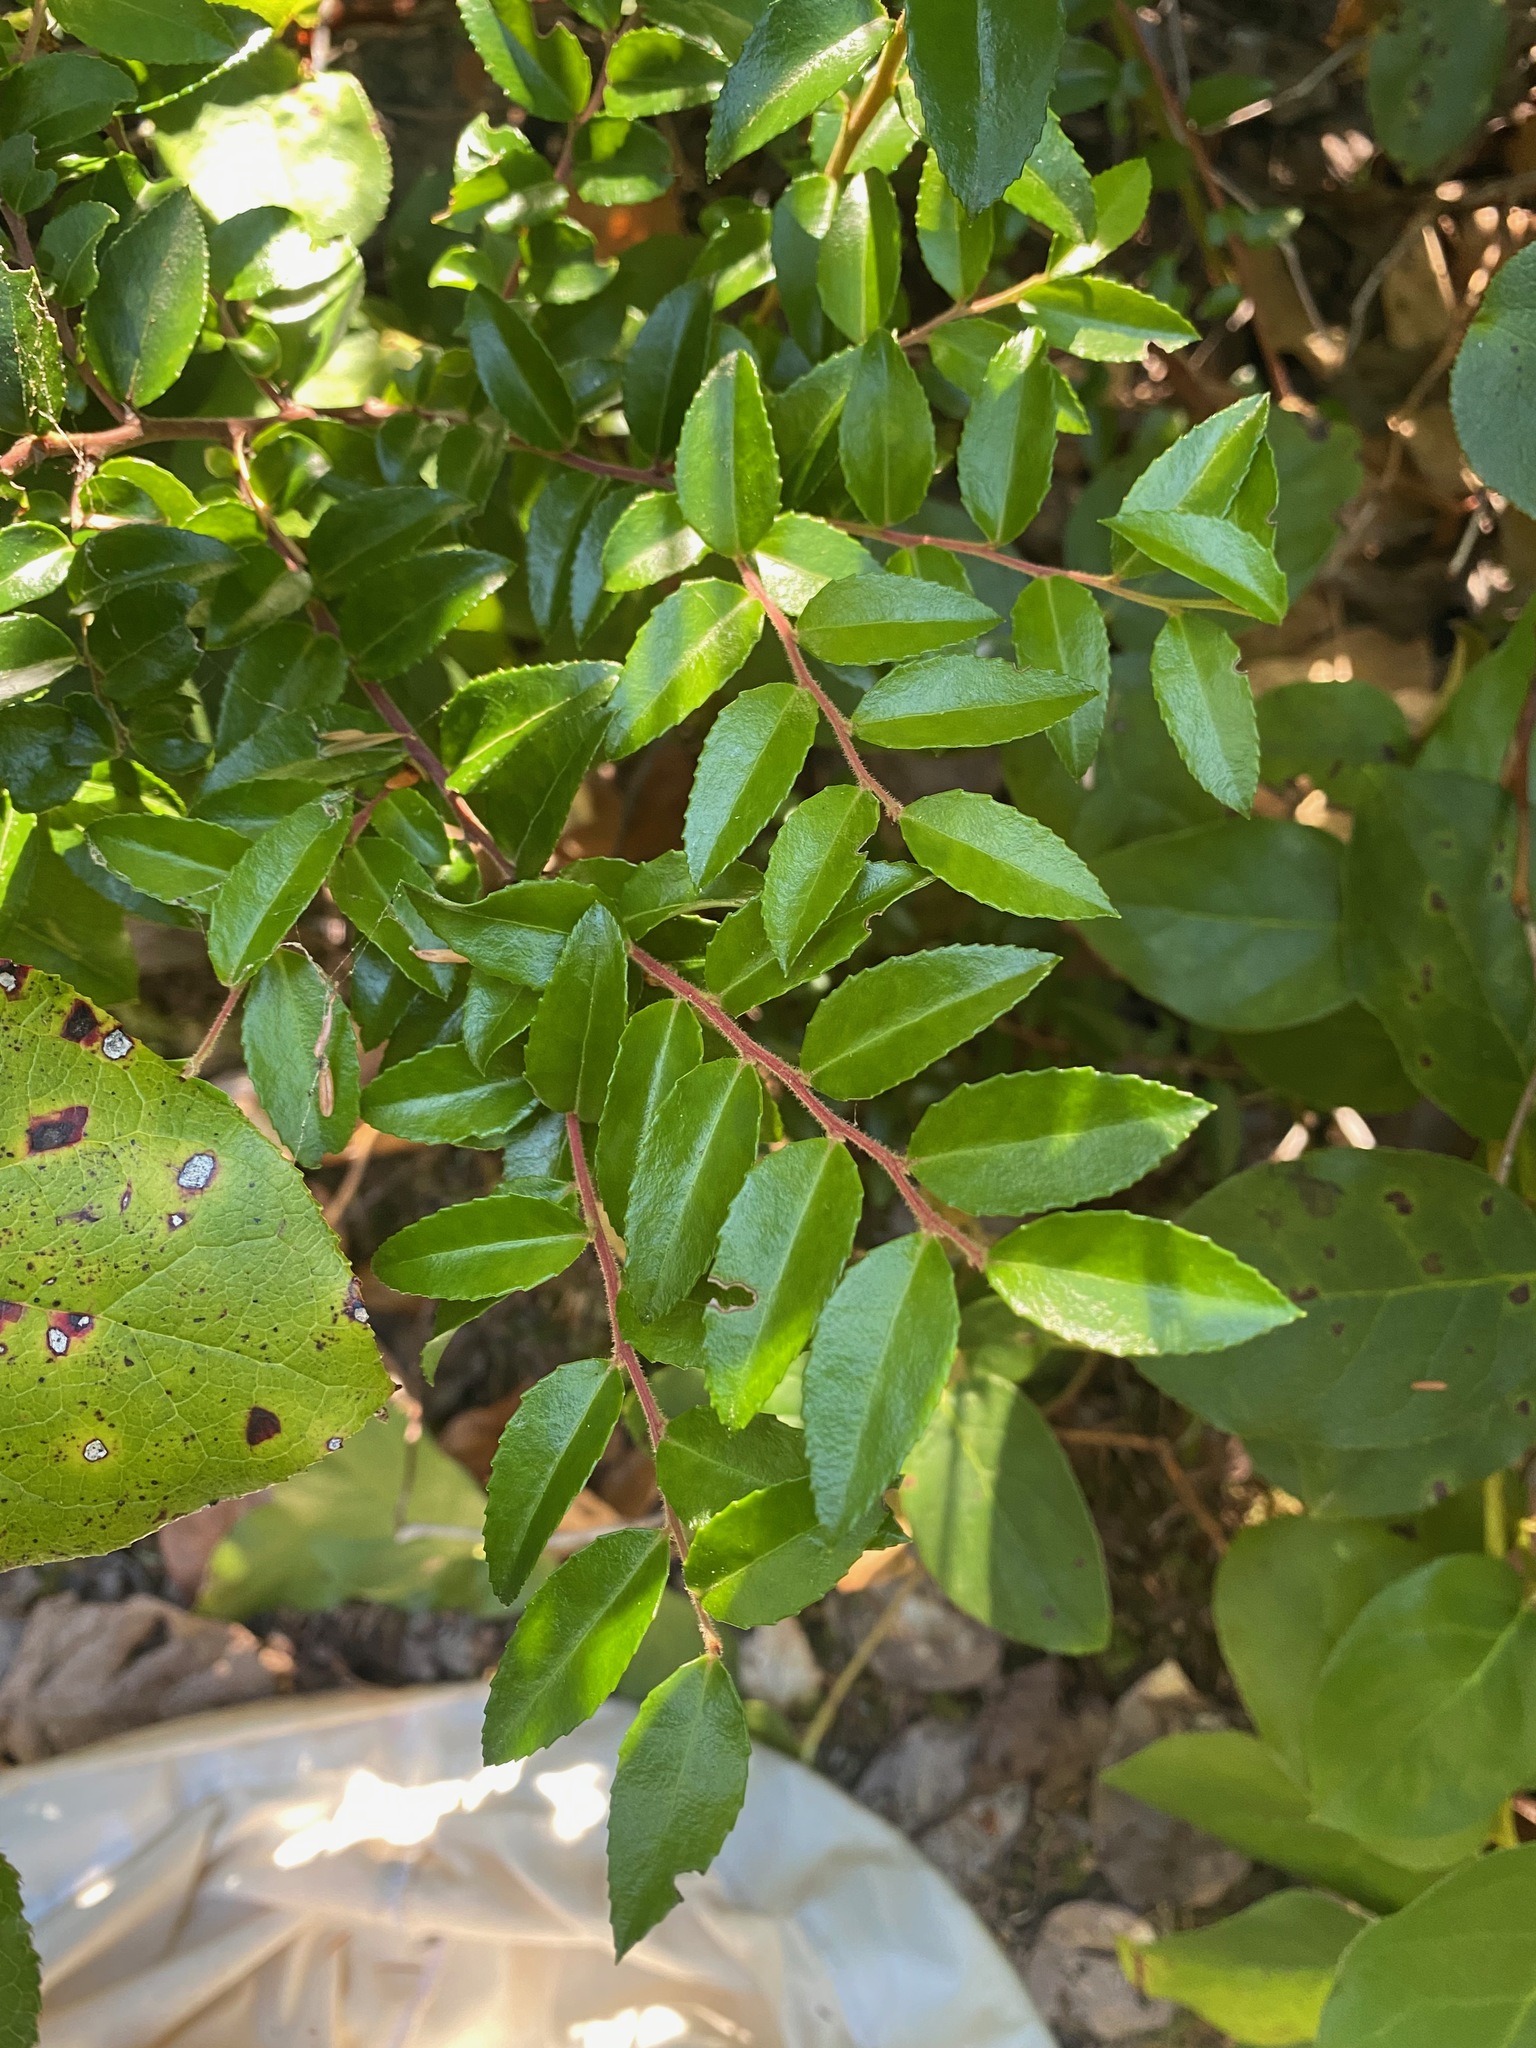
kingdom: Plantae
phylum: Tracheophyta
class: Magnoliopsida
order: Ericales
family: Ericaceae
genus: Vaccinium
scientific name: Vaccinium ovatum
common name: California-huckleberry
